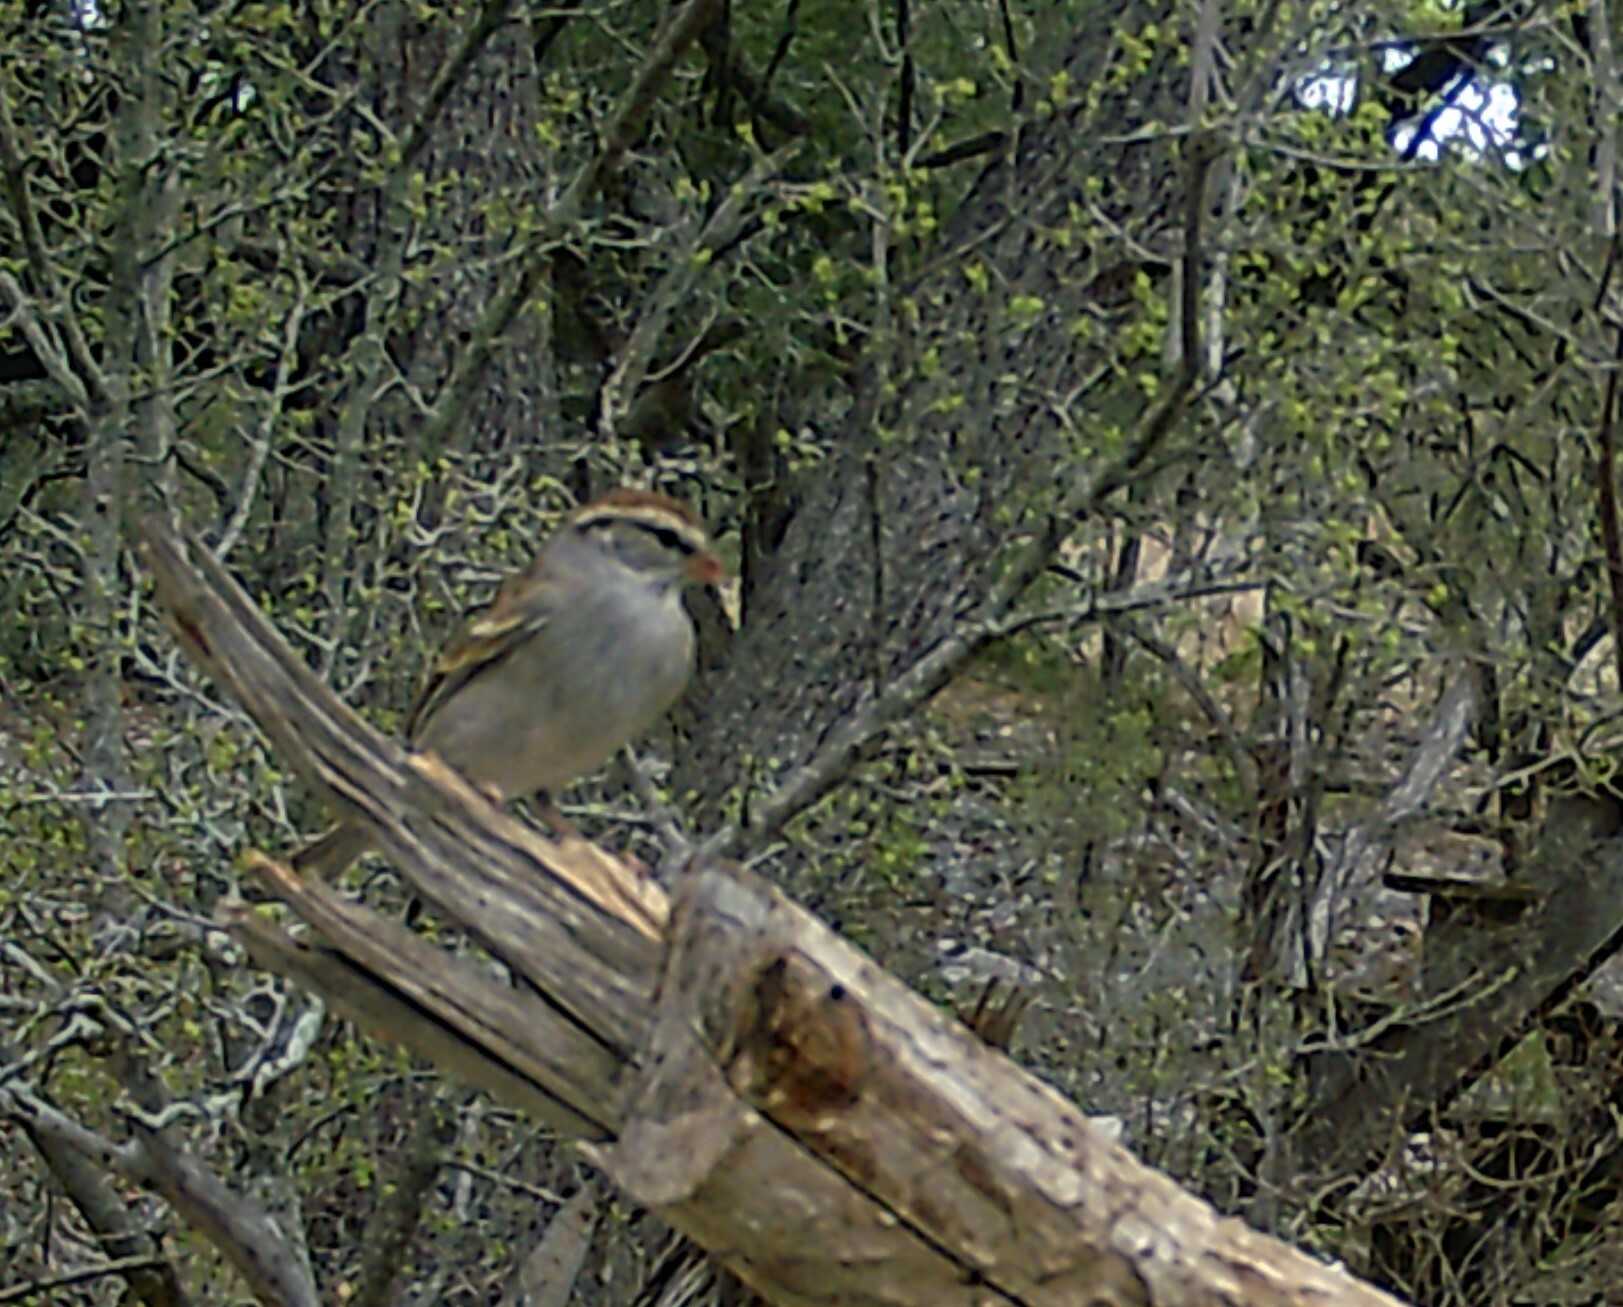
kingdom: Animalia
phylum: Chordata
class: Aves
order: Passeriformes
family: Passerellidae
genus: Spizella
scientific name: Spizella passerina
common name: Chipping sparrow
